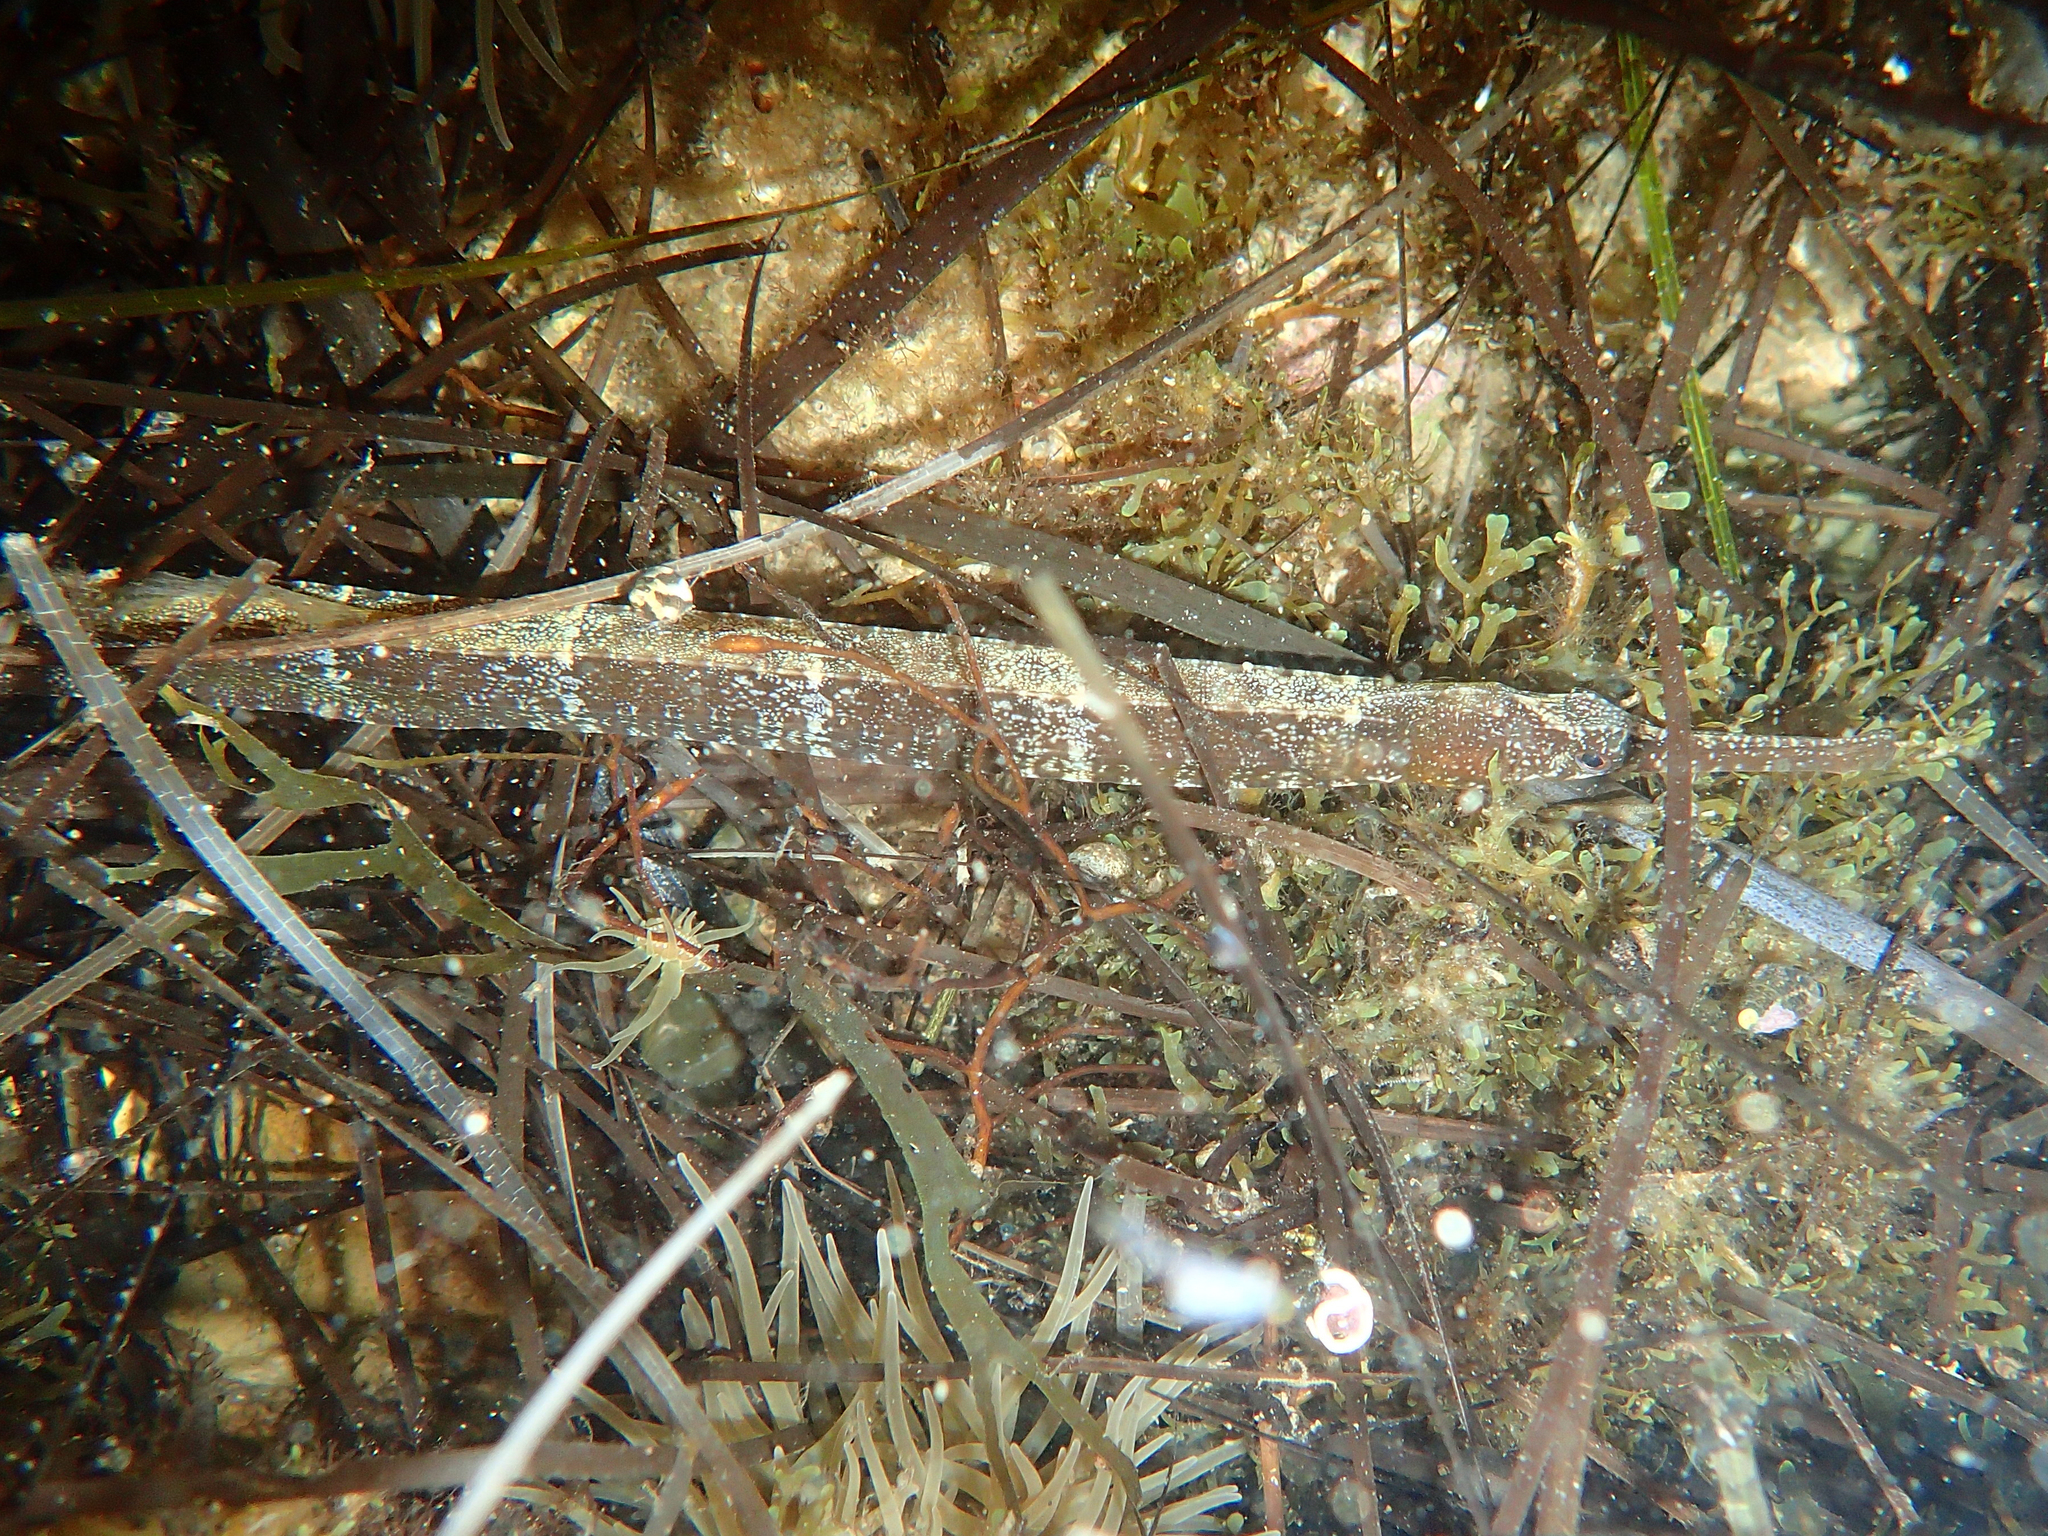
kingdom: Animalia
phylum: Chordata
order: Syngnathiformes
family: Syngnathidae
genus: Syngnathus
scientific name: Syngnathus tenuirostris
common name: Narrow-snouted pipefish
